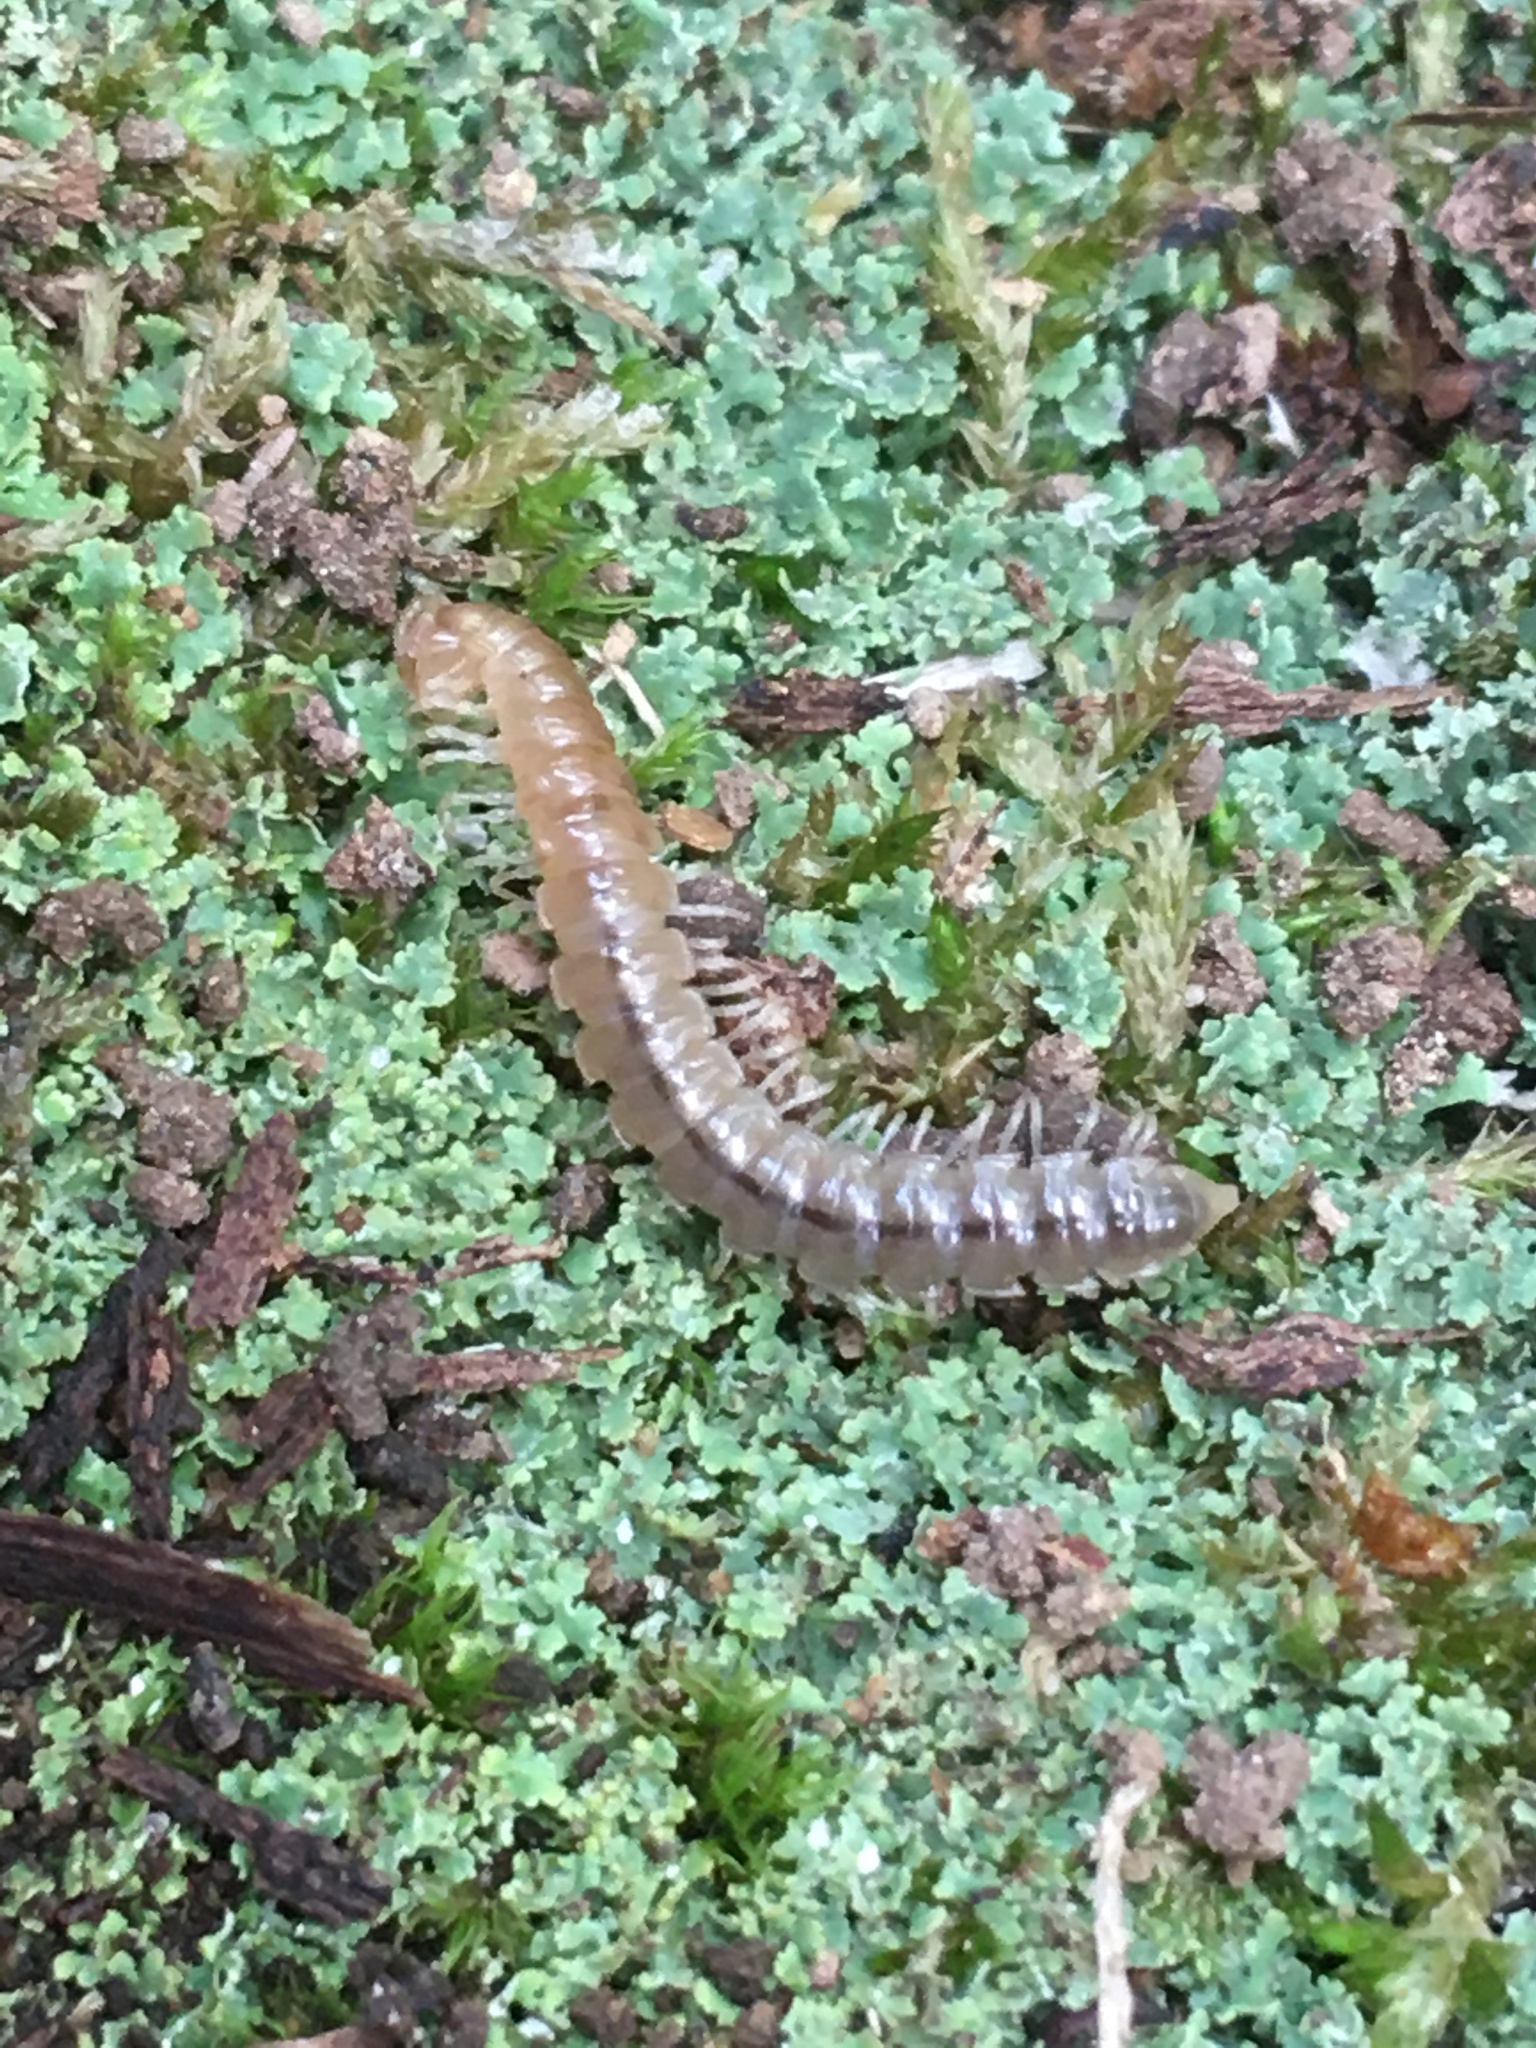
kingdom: Animalia
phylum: Arthropoda
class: Diplopoda
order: Polydesmida
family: Paradoxosomatidae
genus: Oxidus
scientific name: Oxidus gracilis
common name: Greenhouse millipede
